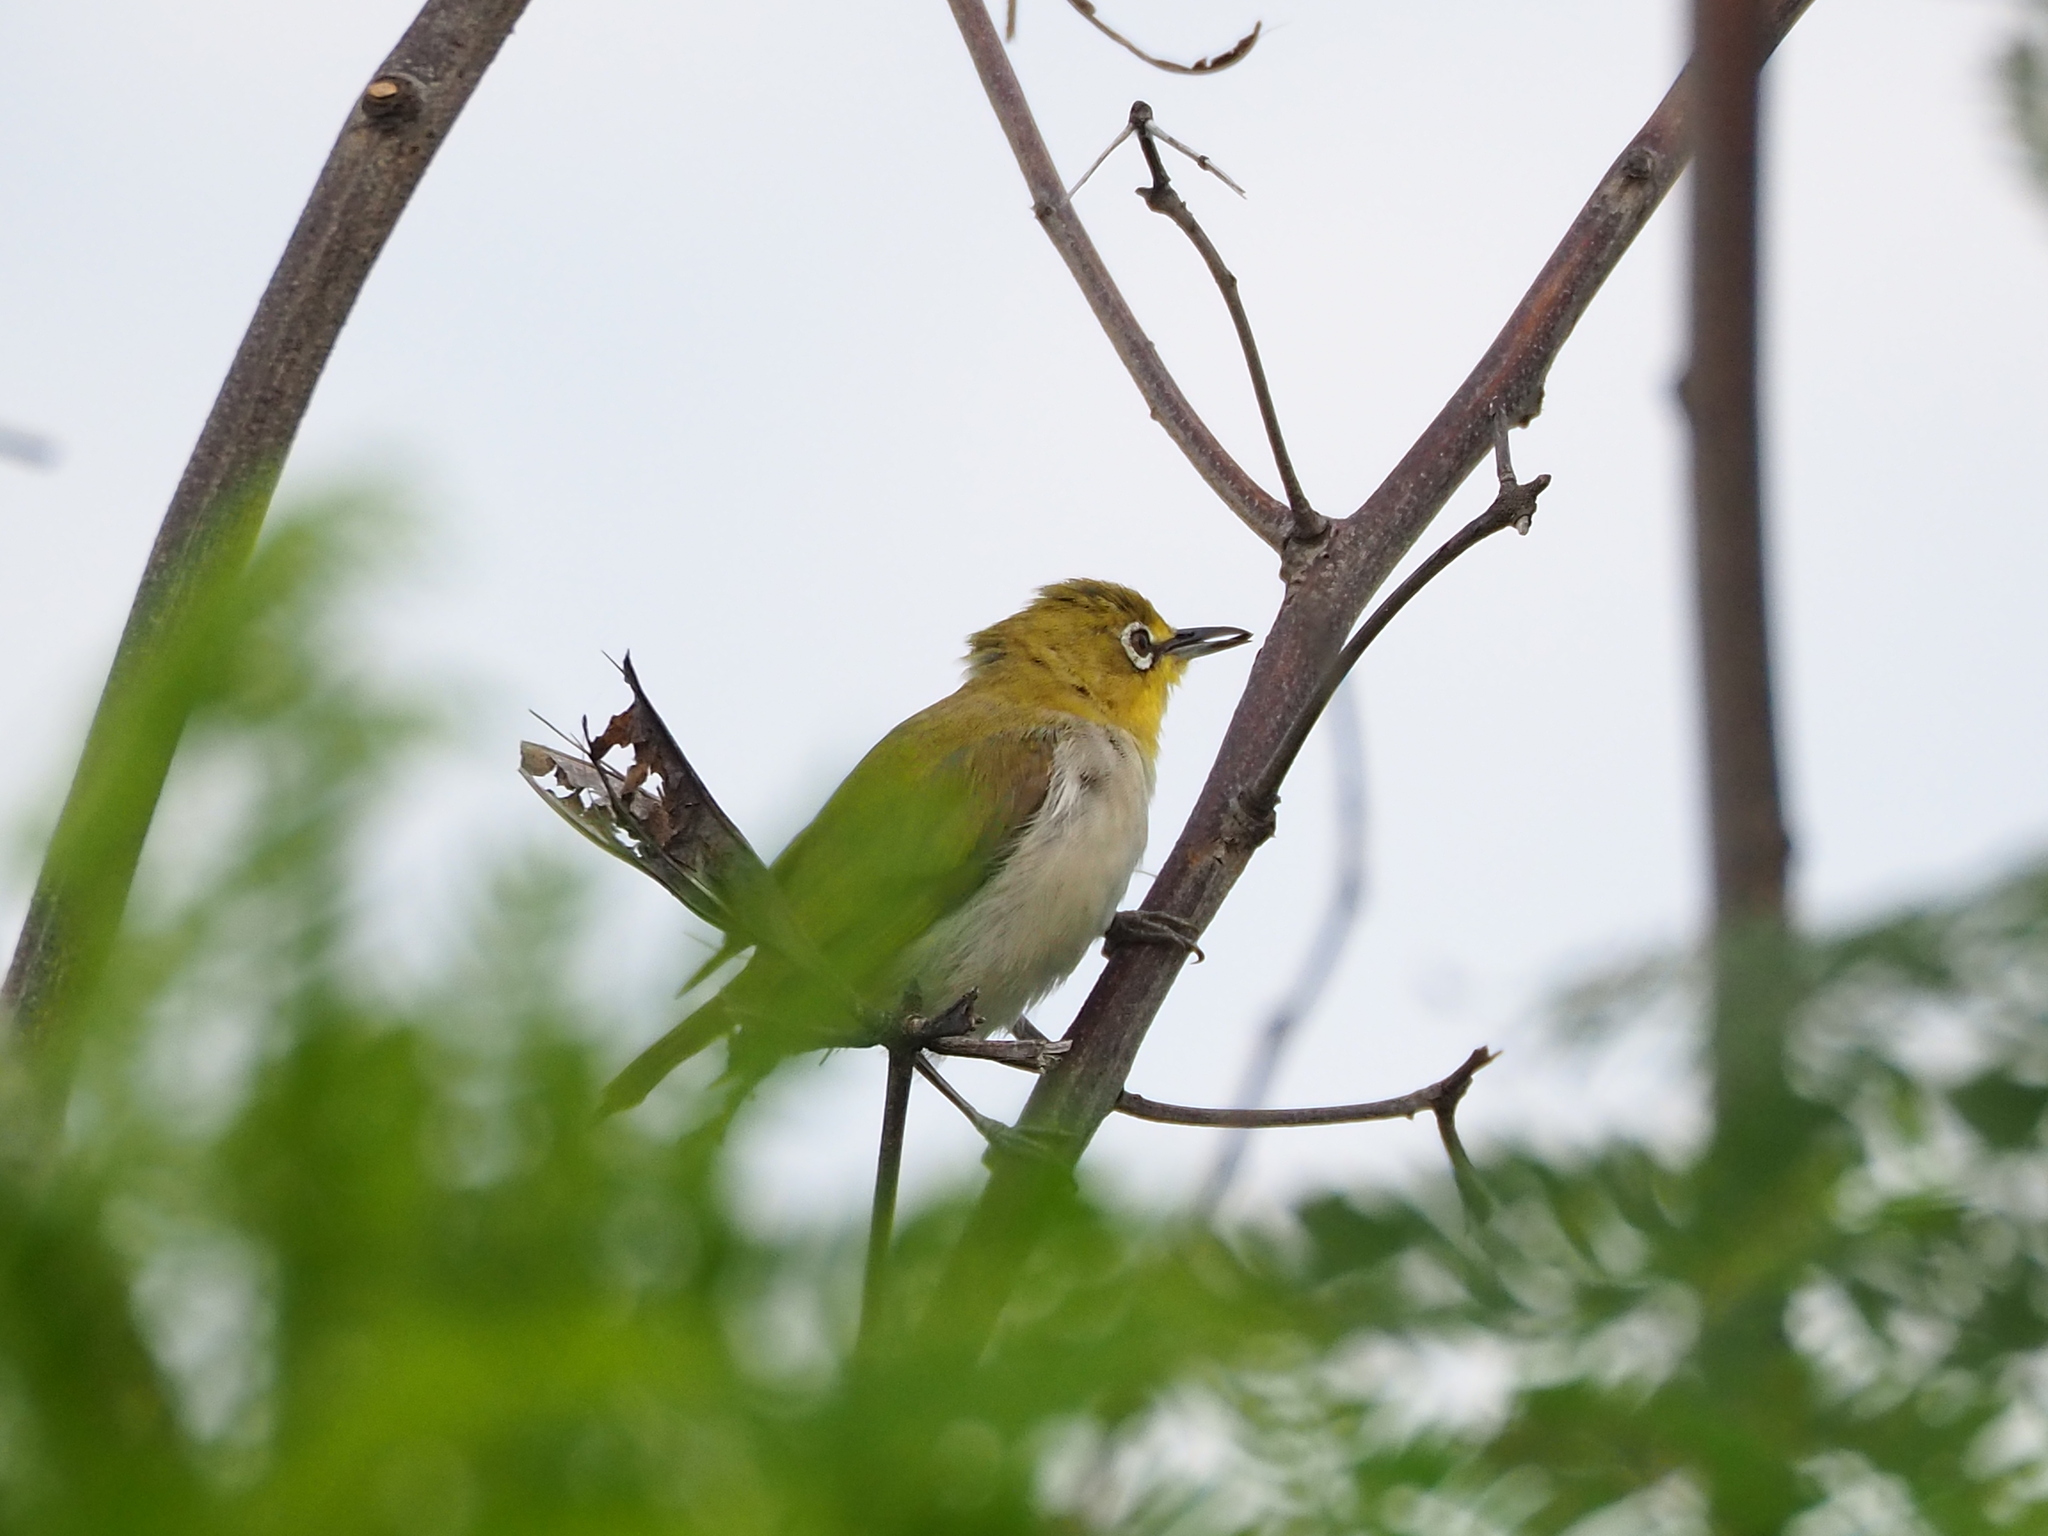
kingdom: Animalia
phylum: Chordata
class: Aves
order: Passeriformes
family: Zosteropidae
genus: Zosterops
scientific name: Zosterops simplex
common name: Swinhoe's white-eye
